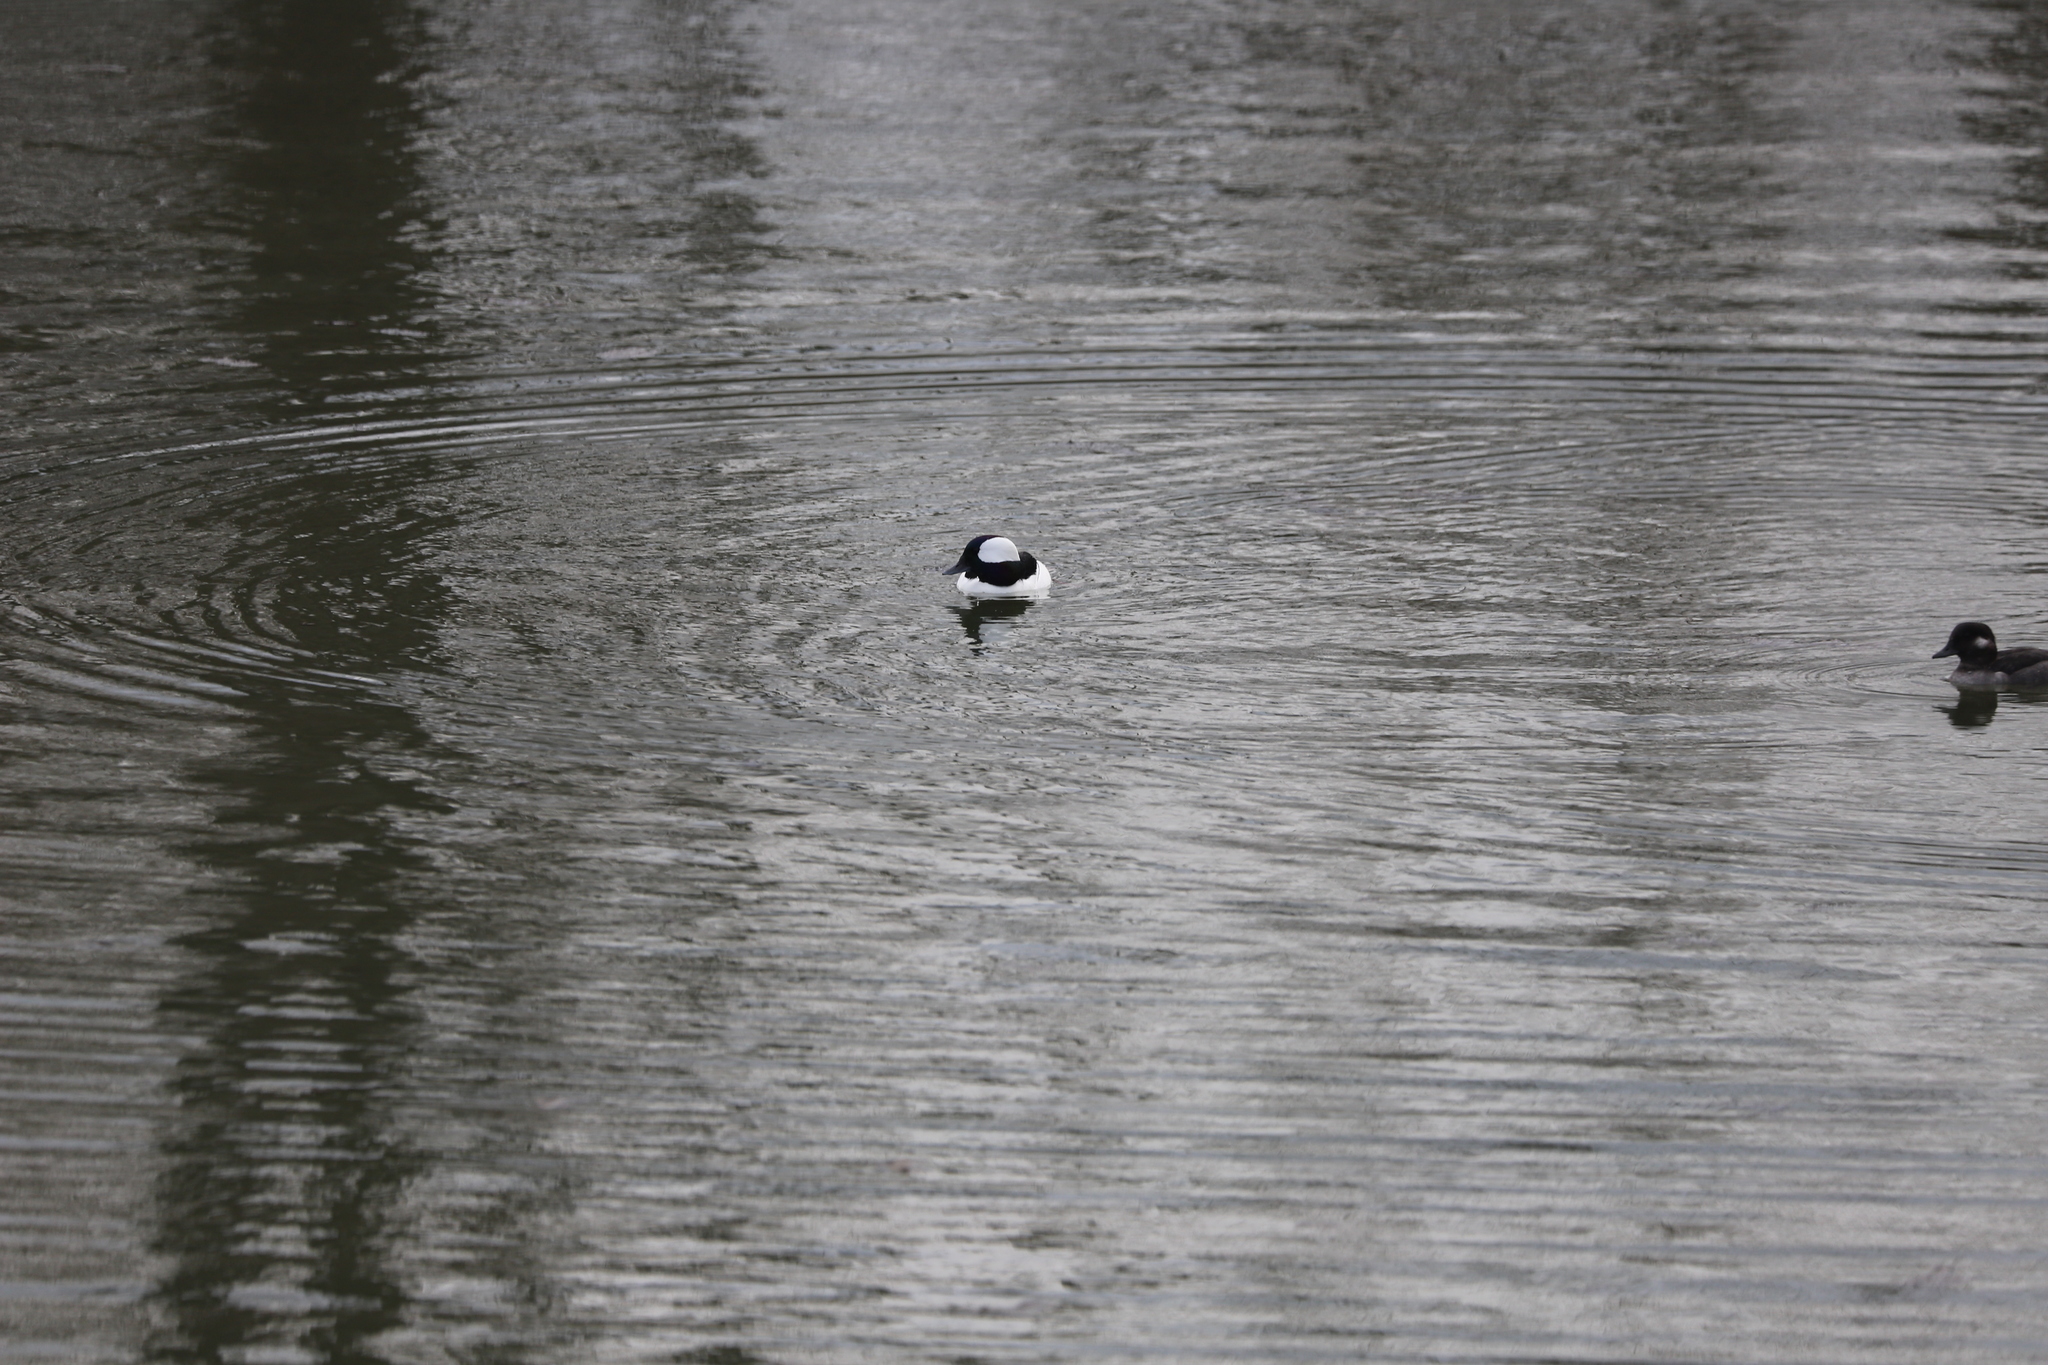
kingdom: Animalia
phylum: Chordata
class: Aves
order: Anseriformes
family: Anatidae
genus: Bucephala
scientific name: Bucephala albeola
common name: Bufflehead
